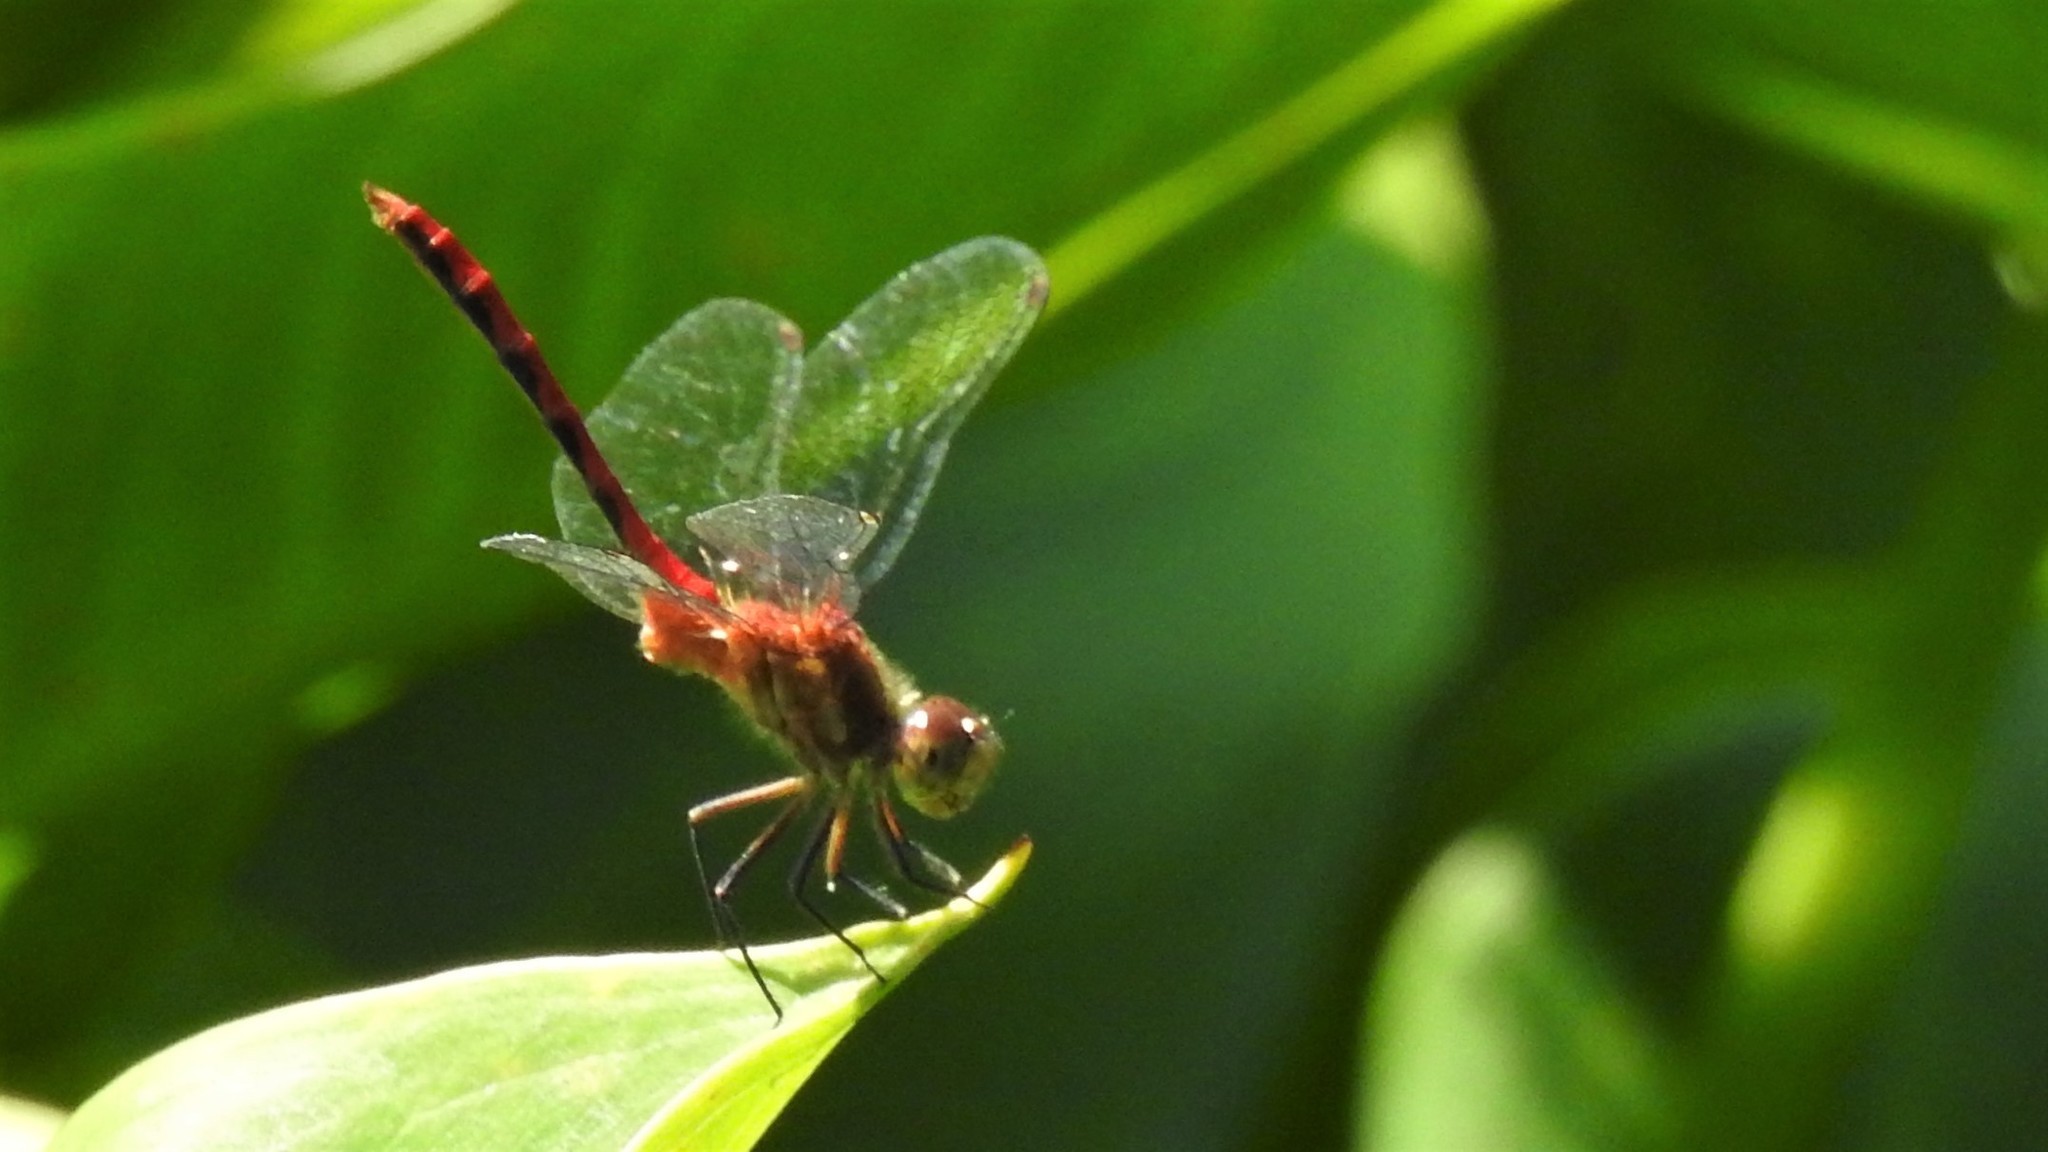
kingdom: Animalia
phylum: Arthropoda
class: Insecta
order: Odonata
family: Libellulidae
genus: Sympetrum
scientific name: Sympetrum
